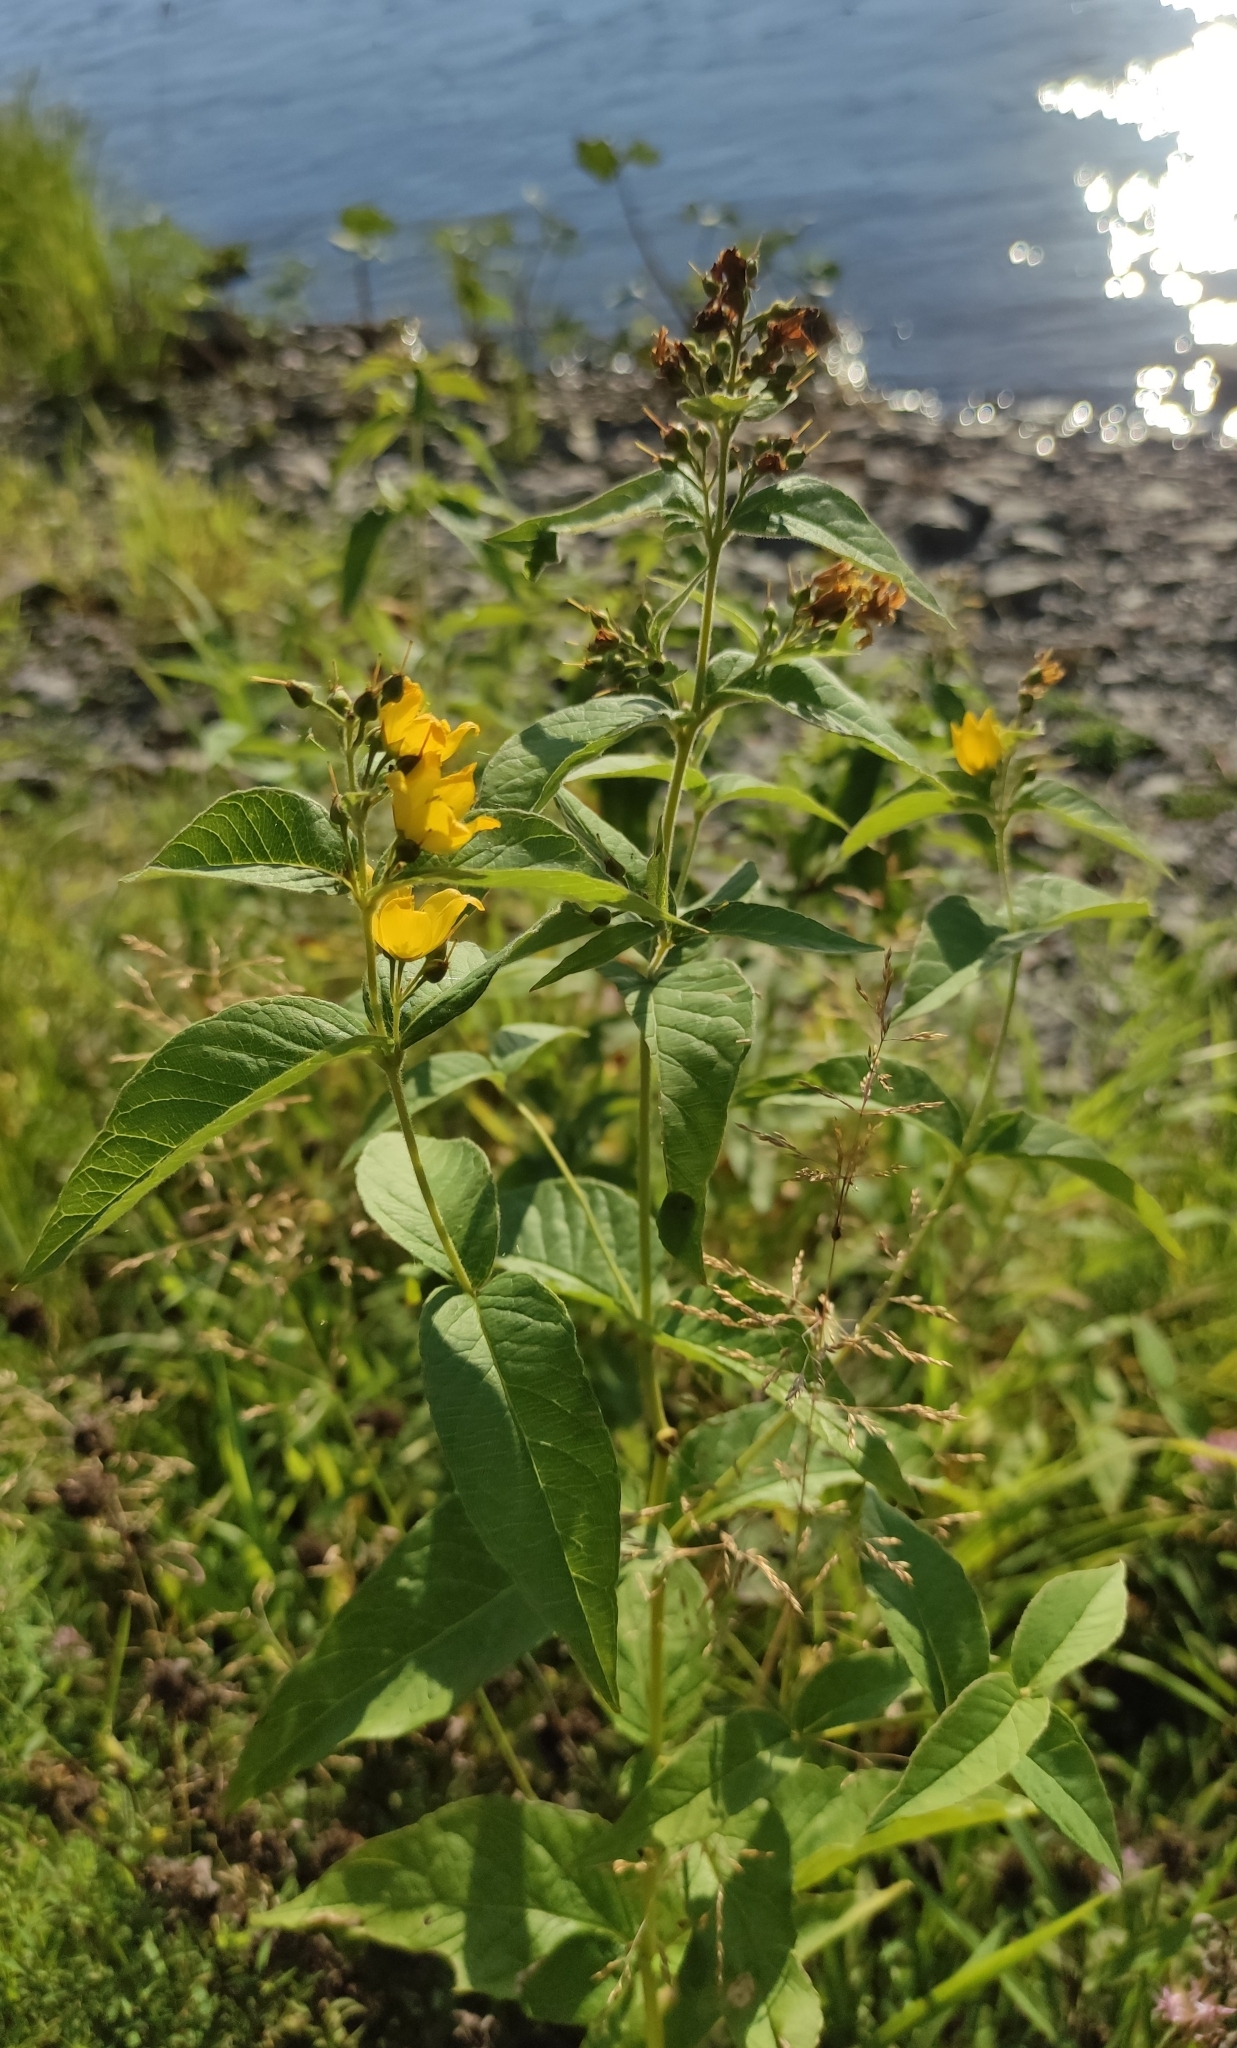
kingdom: Plantae
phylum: Tracheophyta
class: Magnoliopsida
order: Ericales
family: Primulaceae
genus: Lysimachia
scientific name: Lysimachia vulgaris
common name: Yellow loosestrife
